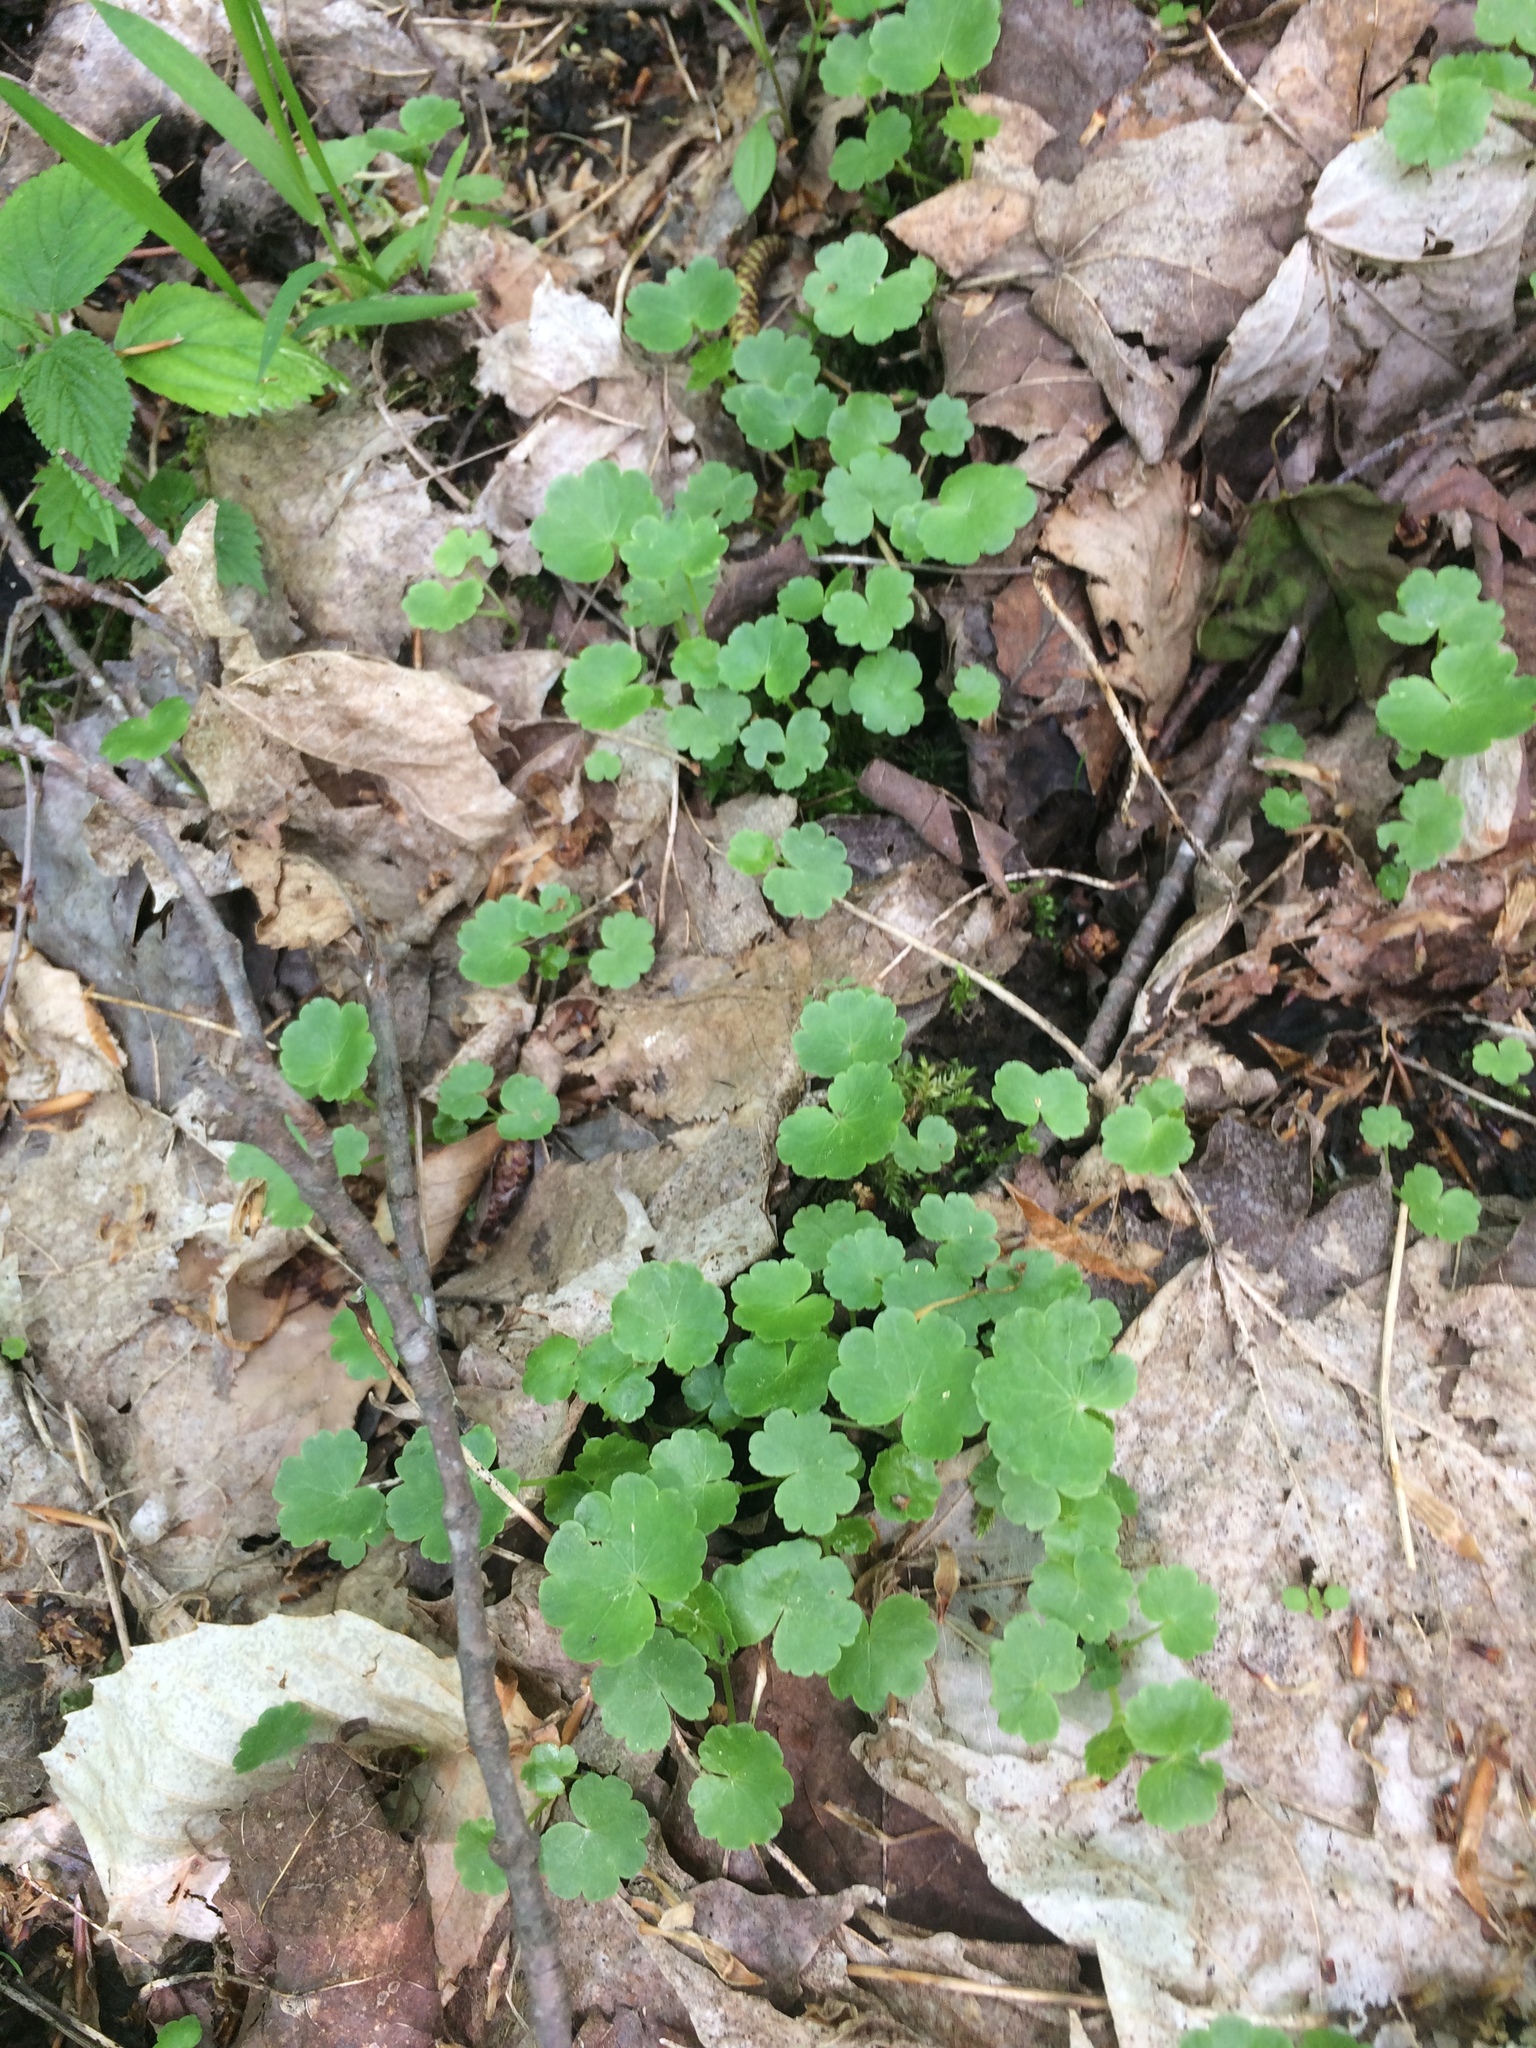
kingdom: Plantae
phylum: Tracheophyta
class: Magnoliopsida
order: Apiales
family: Araliaceae
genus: Hydrocotyle
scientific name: Hydrocotyle americana
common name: American water-pennywort
